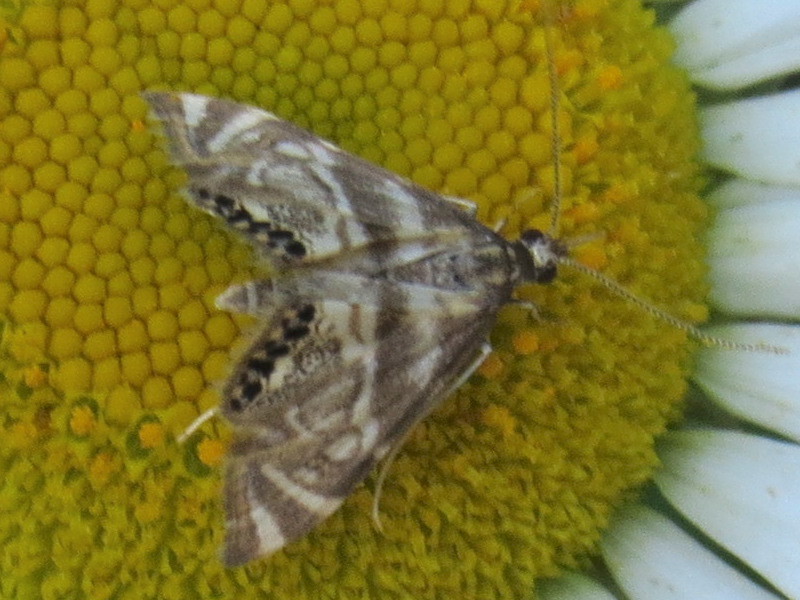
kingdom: Animalia
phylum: Arthropoda
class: Insecta
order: Lepidoptera
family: Crambidae
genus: Petrophila
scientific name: Petrophila canadensis
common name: Canadian petrophila
